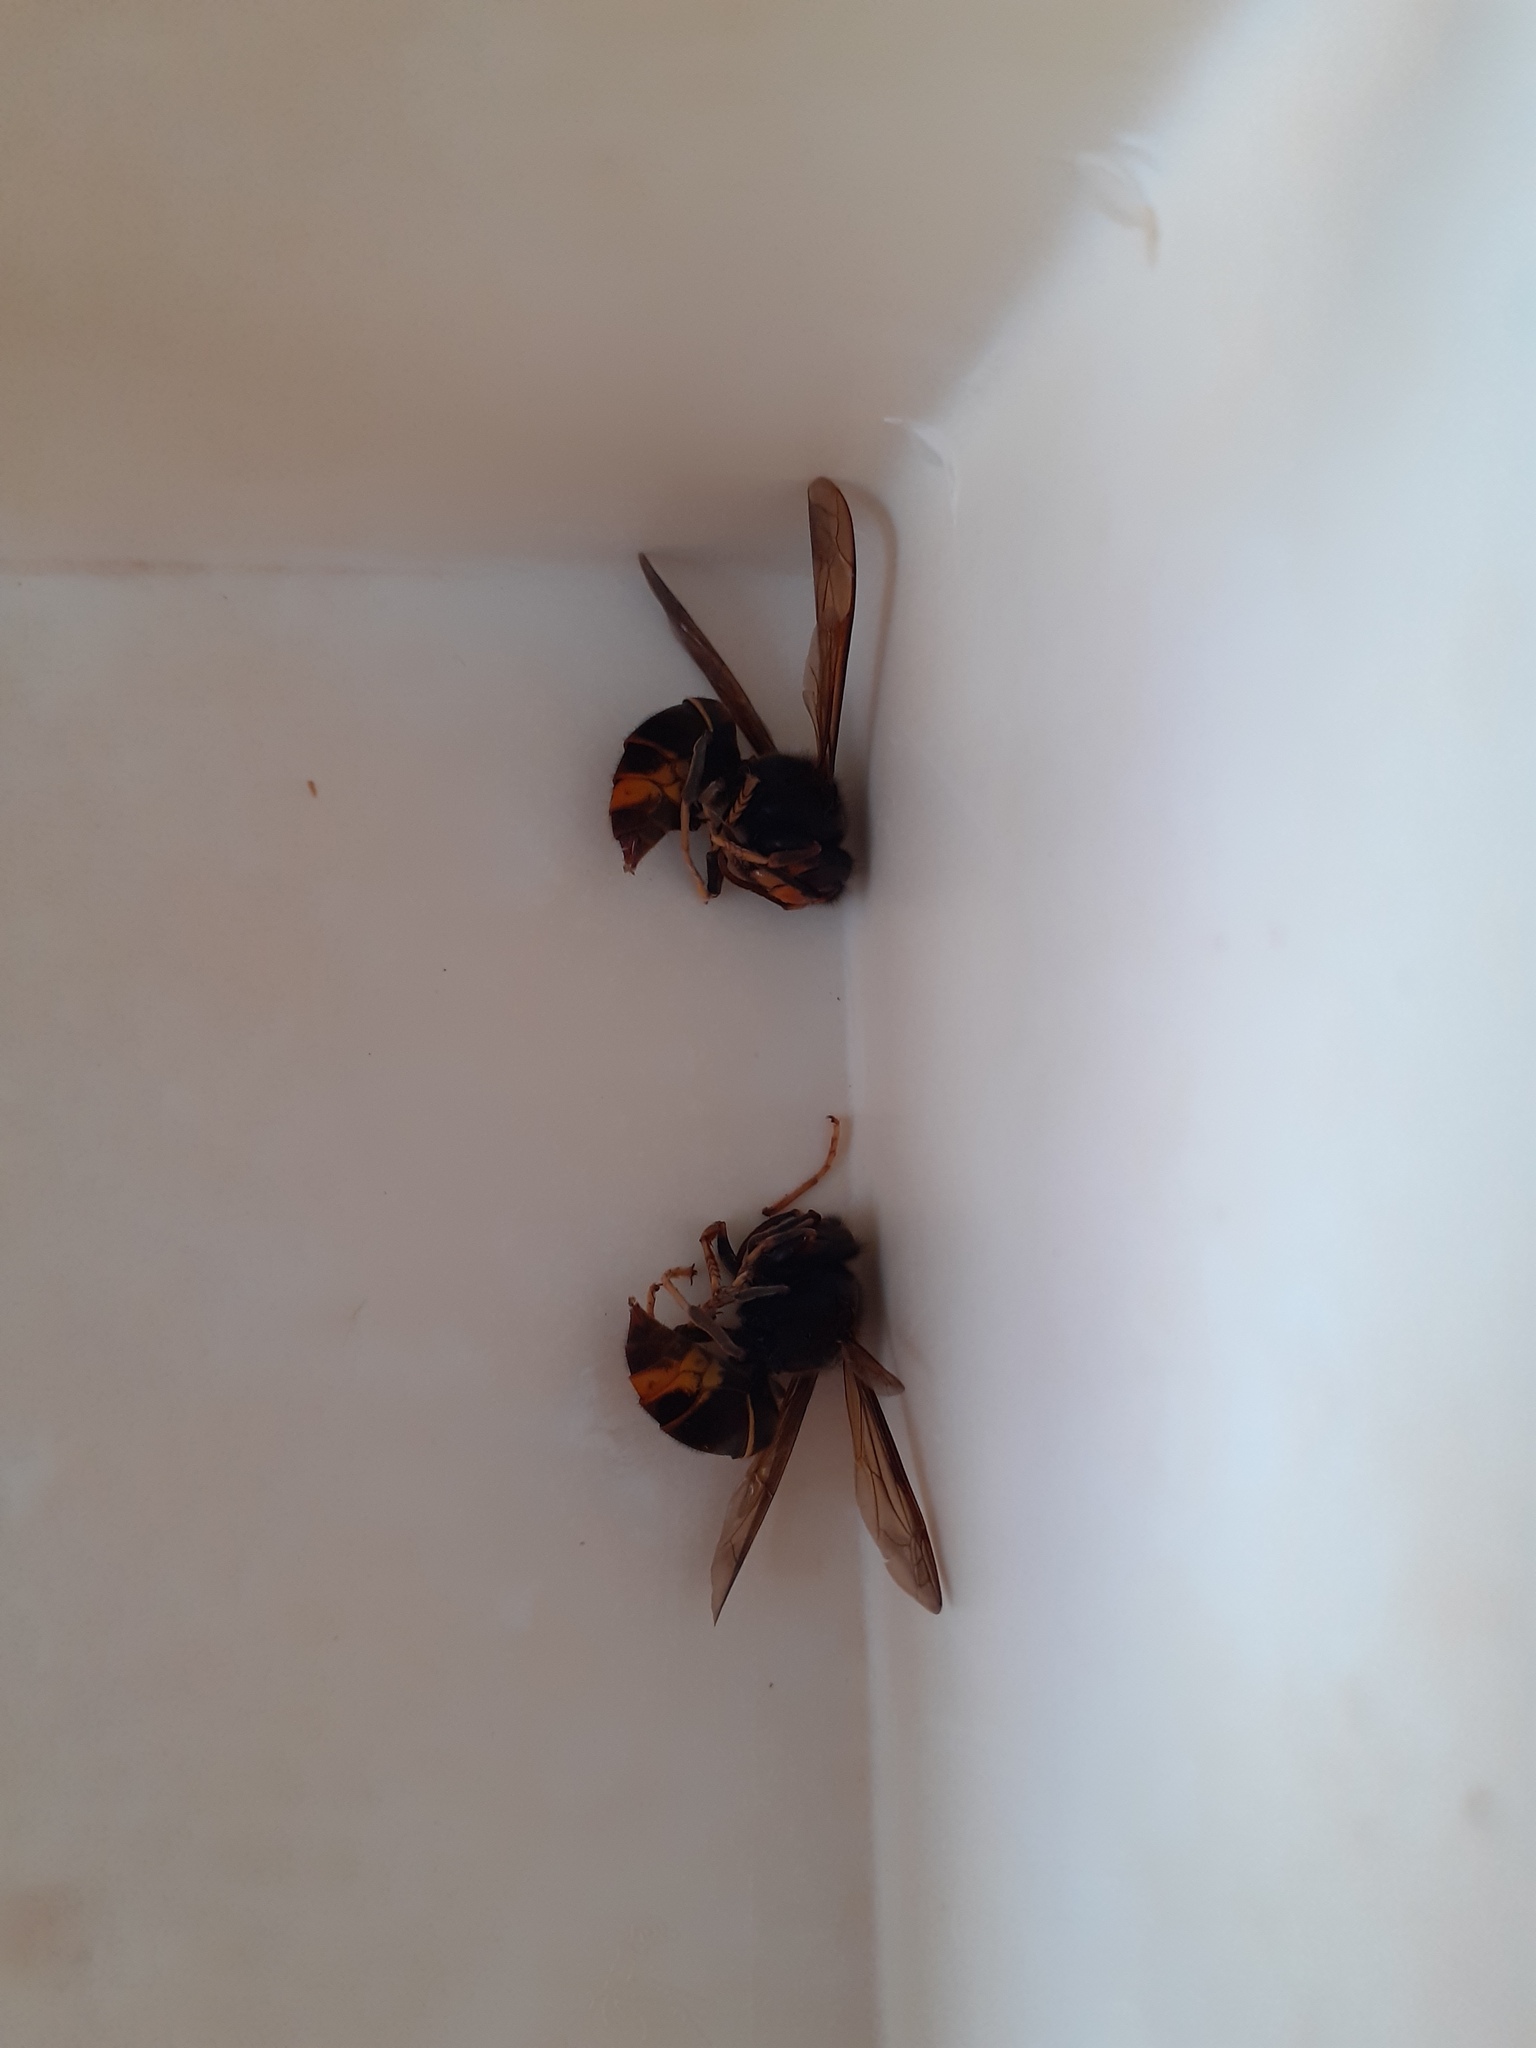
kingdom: Animalia
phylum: Arthropoda
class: Insecta
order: Hymenoptera
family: Vespidae
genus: Vespa
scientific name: Vespa velutina
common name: Asian hornet
